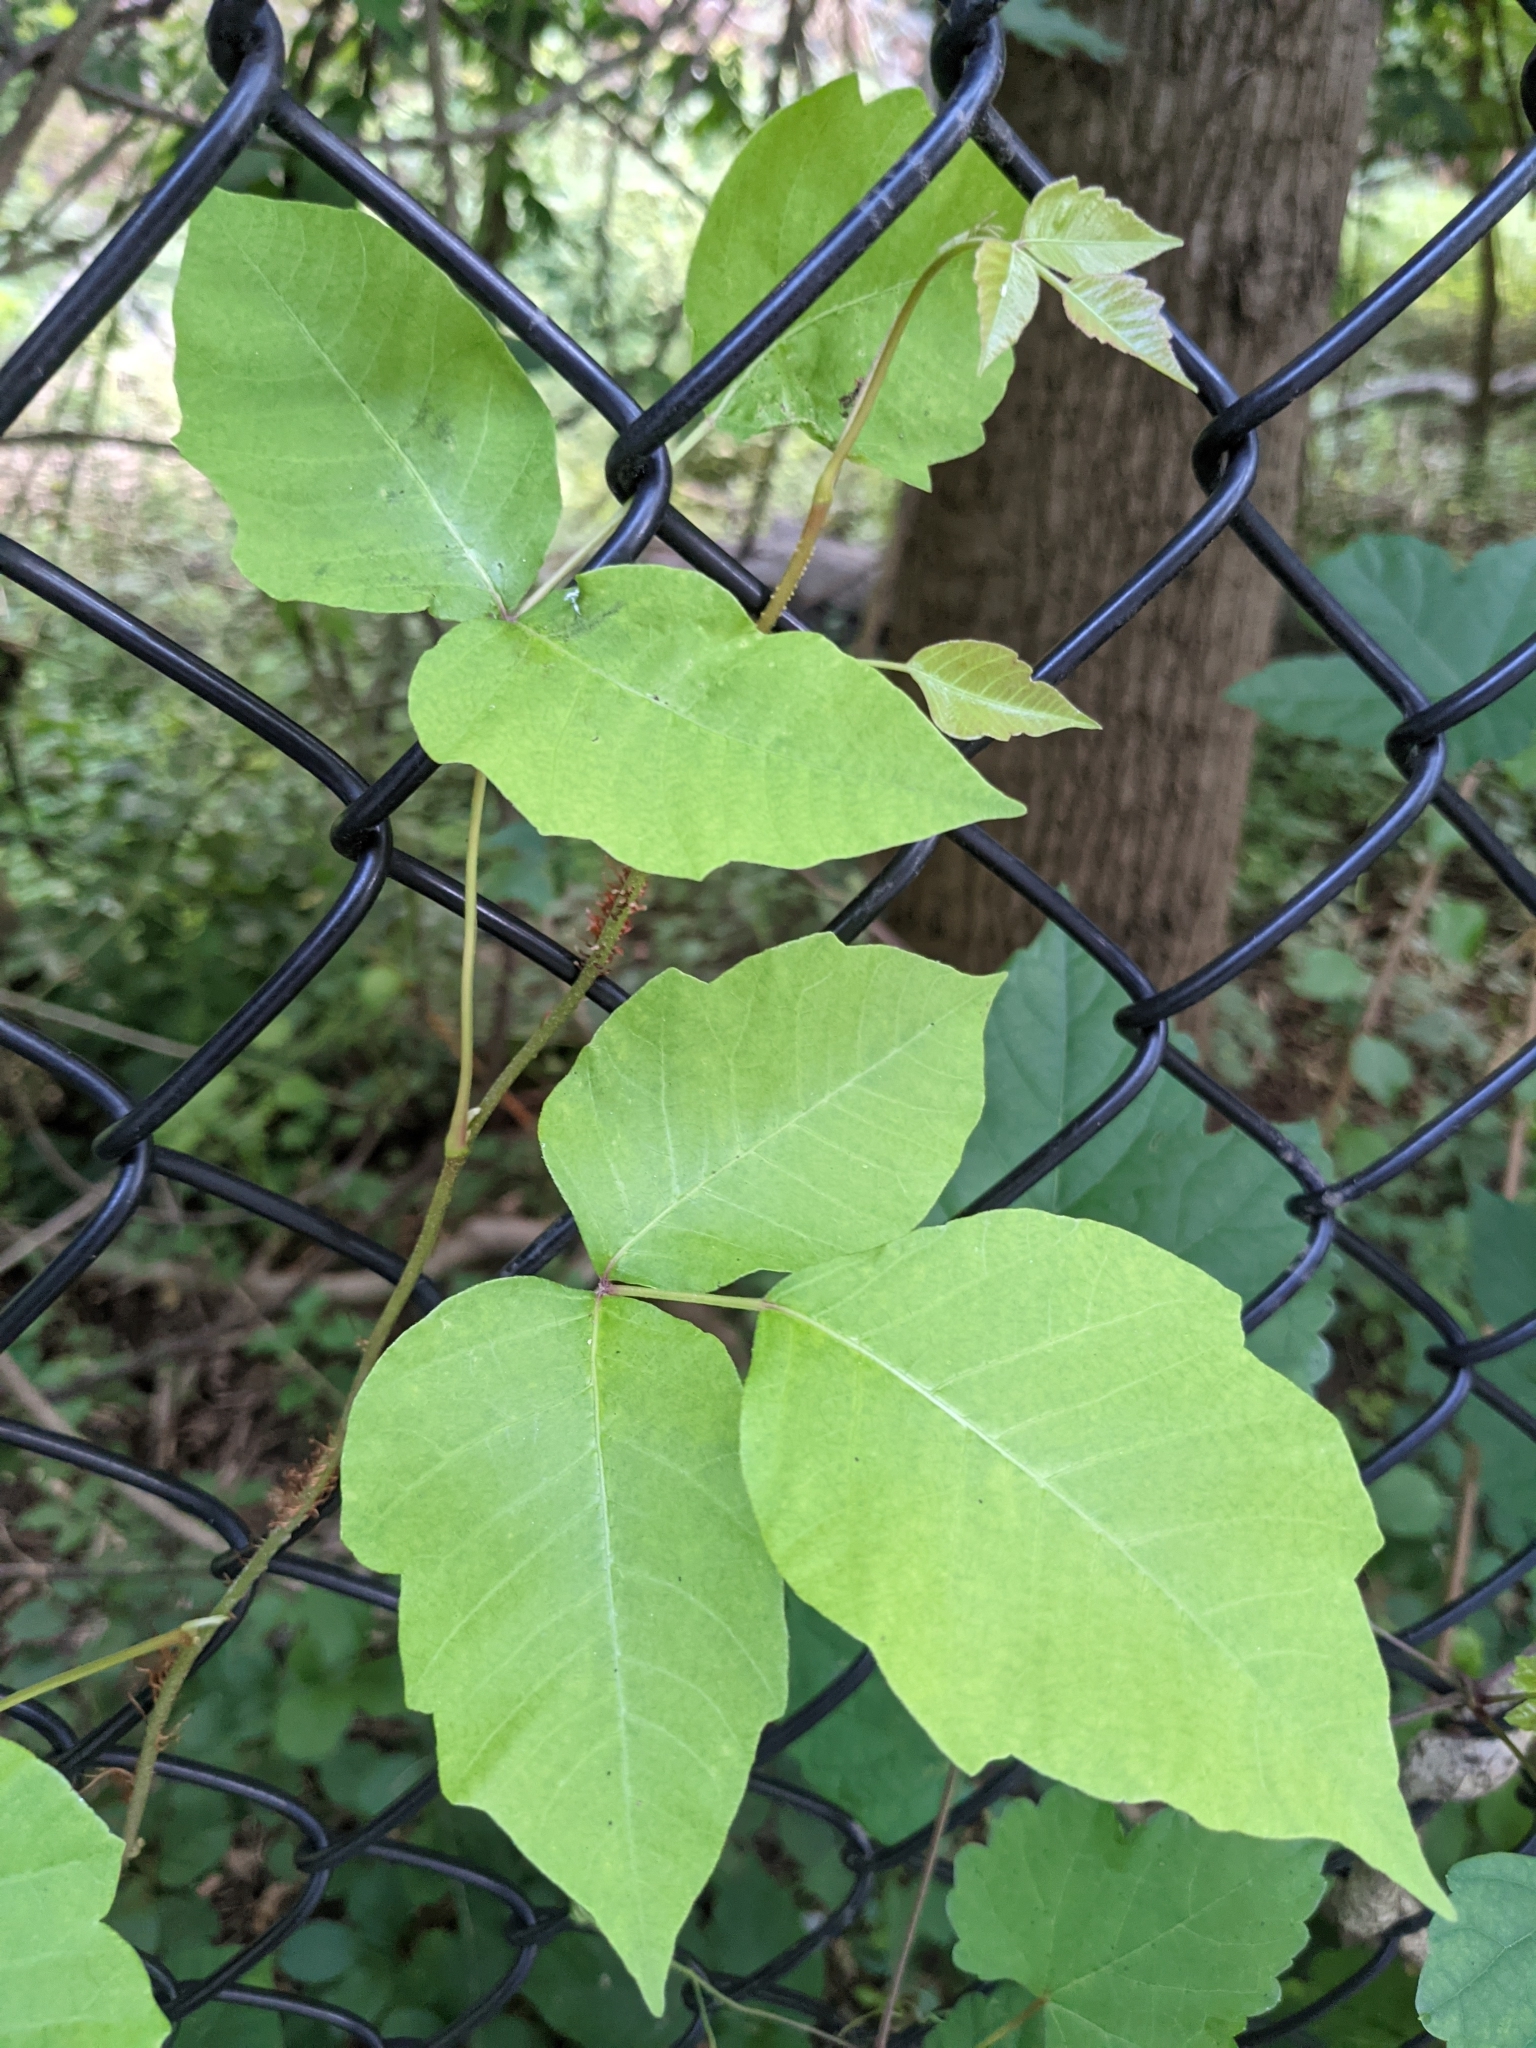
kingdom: Plantae
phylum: Tracheophyta
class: Magnoliopsida
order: Sapindales
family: Anacardiaceae
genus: Toxicodendron
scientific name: Toxicodendron radicans
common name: Poison ivy
